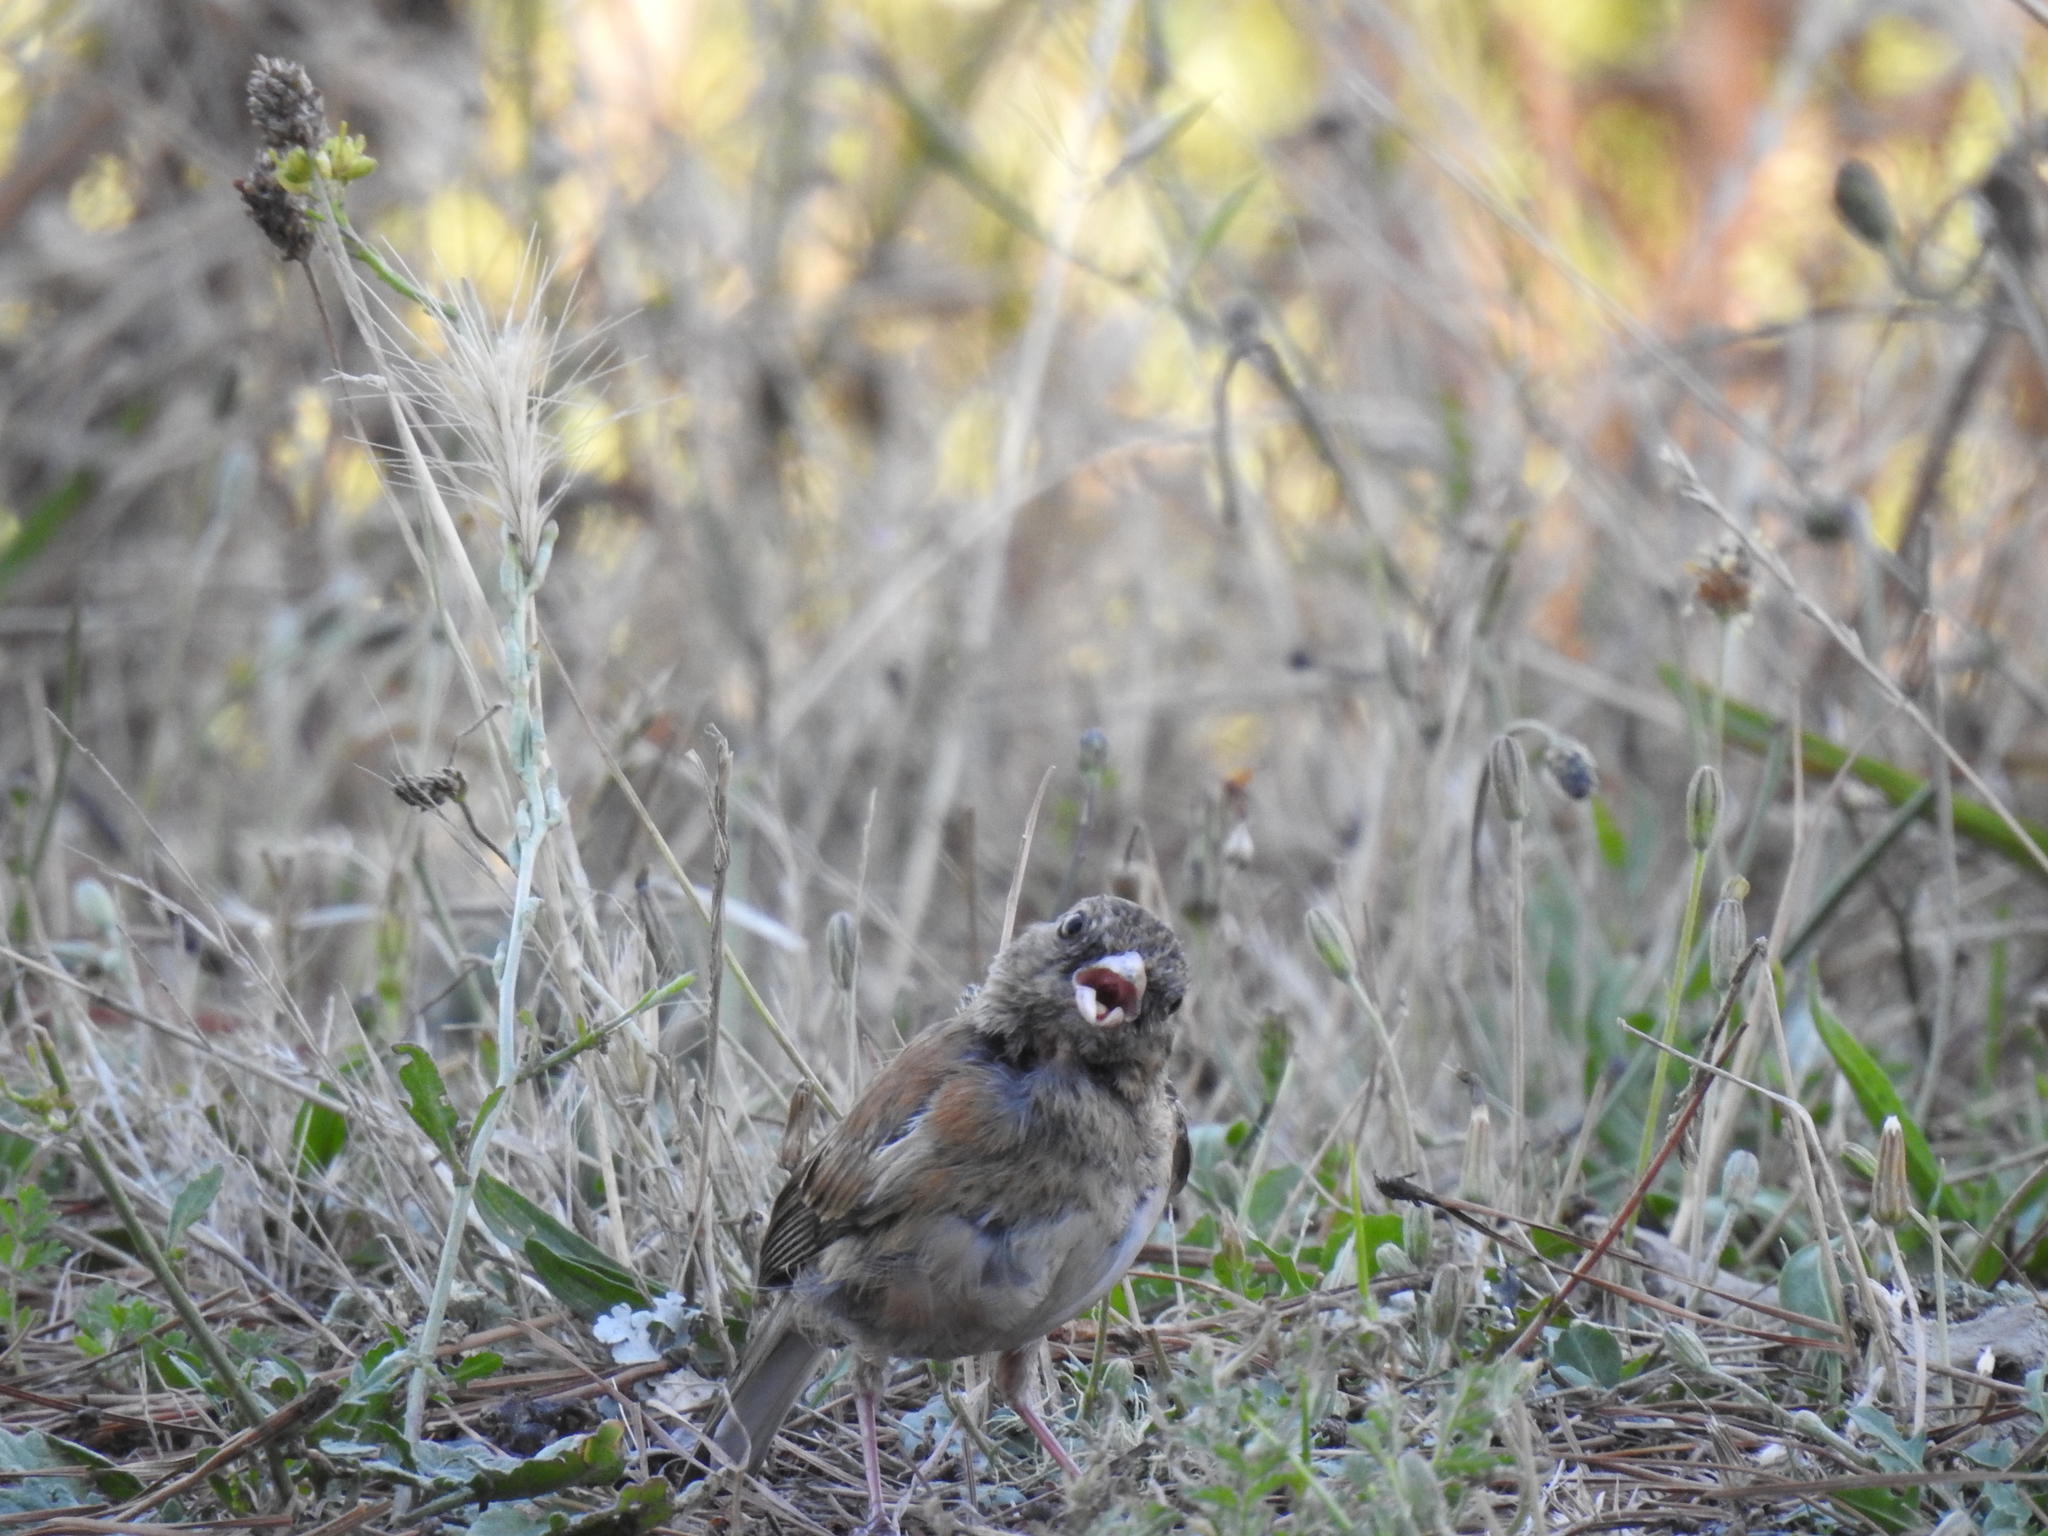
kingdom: Animalia
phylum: Chordata
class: Aves
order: Passeriformes
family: Passerellidae
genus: Junco
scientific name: Junco hyemalis
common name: Dark-eyed junco
